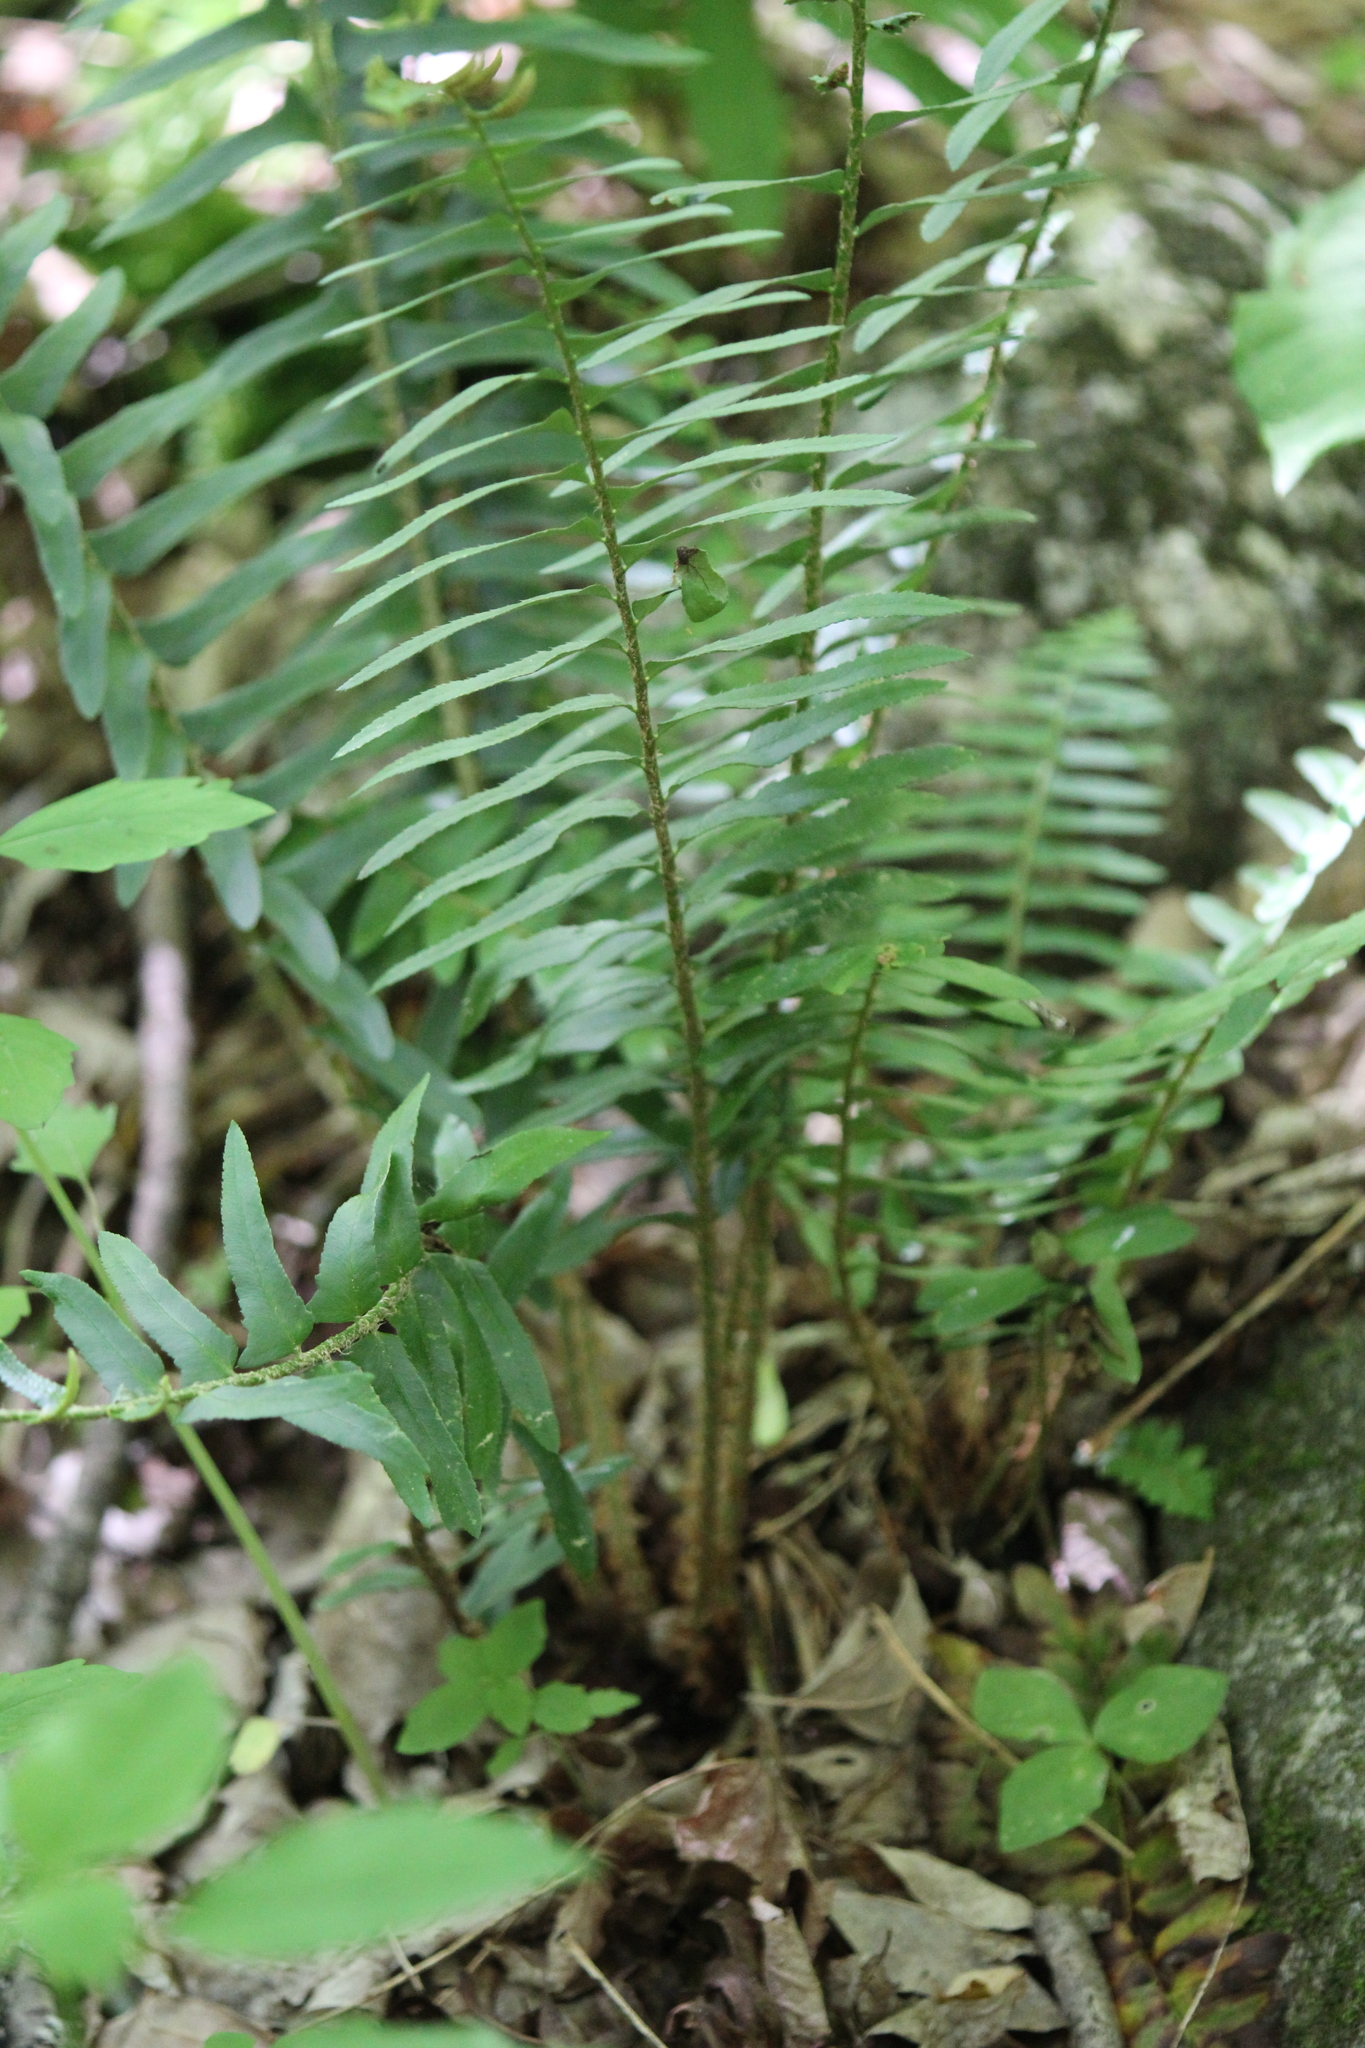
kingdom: Plantae
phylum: Tracheophyta
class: Polypodiopsida
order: Polypodiales
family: Dryopteridaceae
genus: Polystichum
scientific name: Polystichum acrostichoides
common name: Christmas fern
